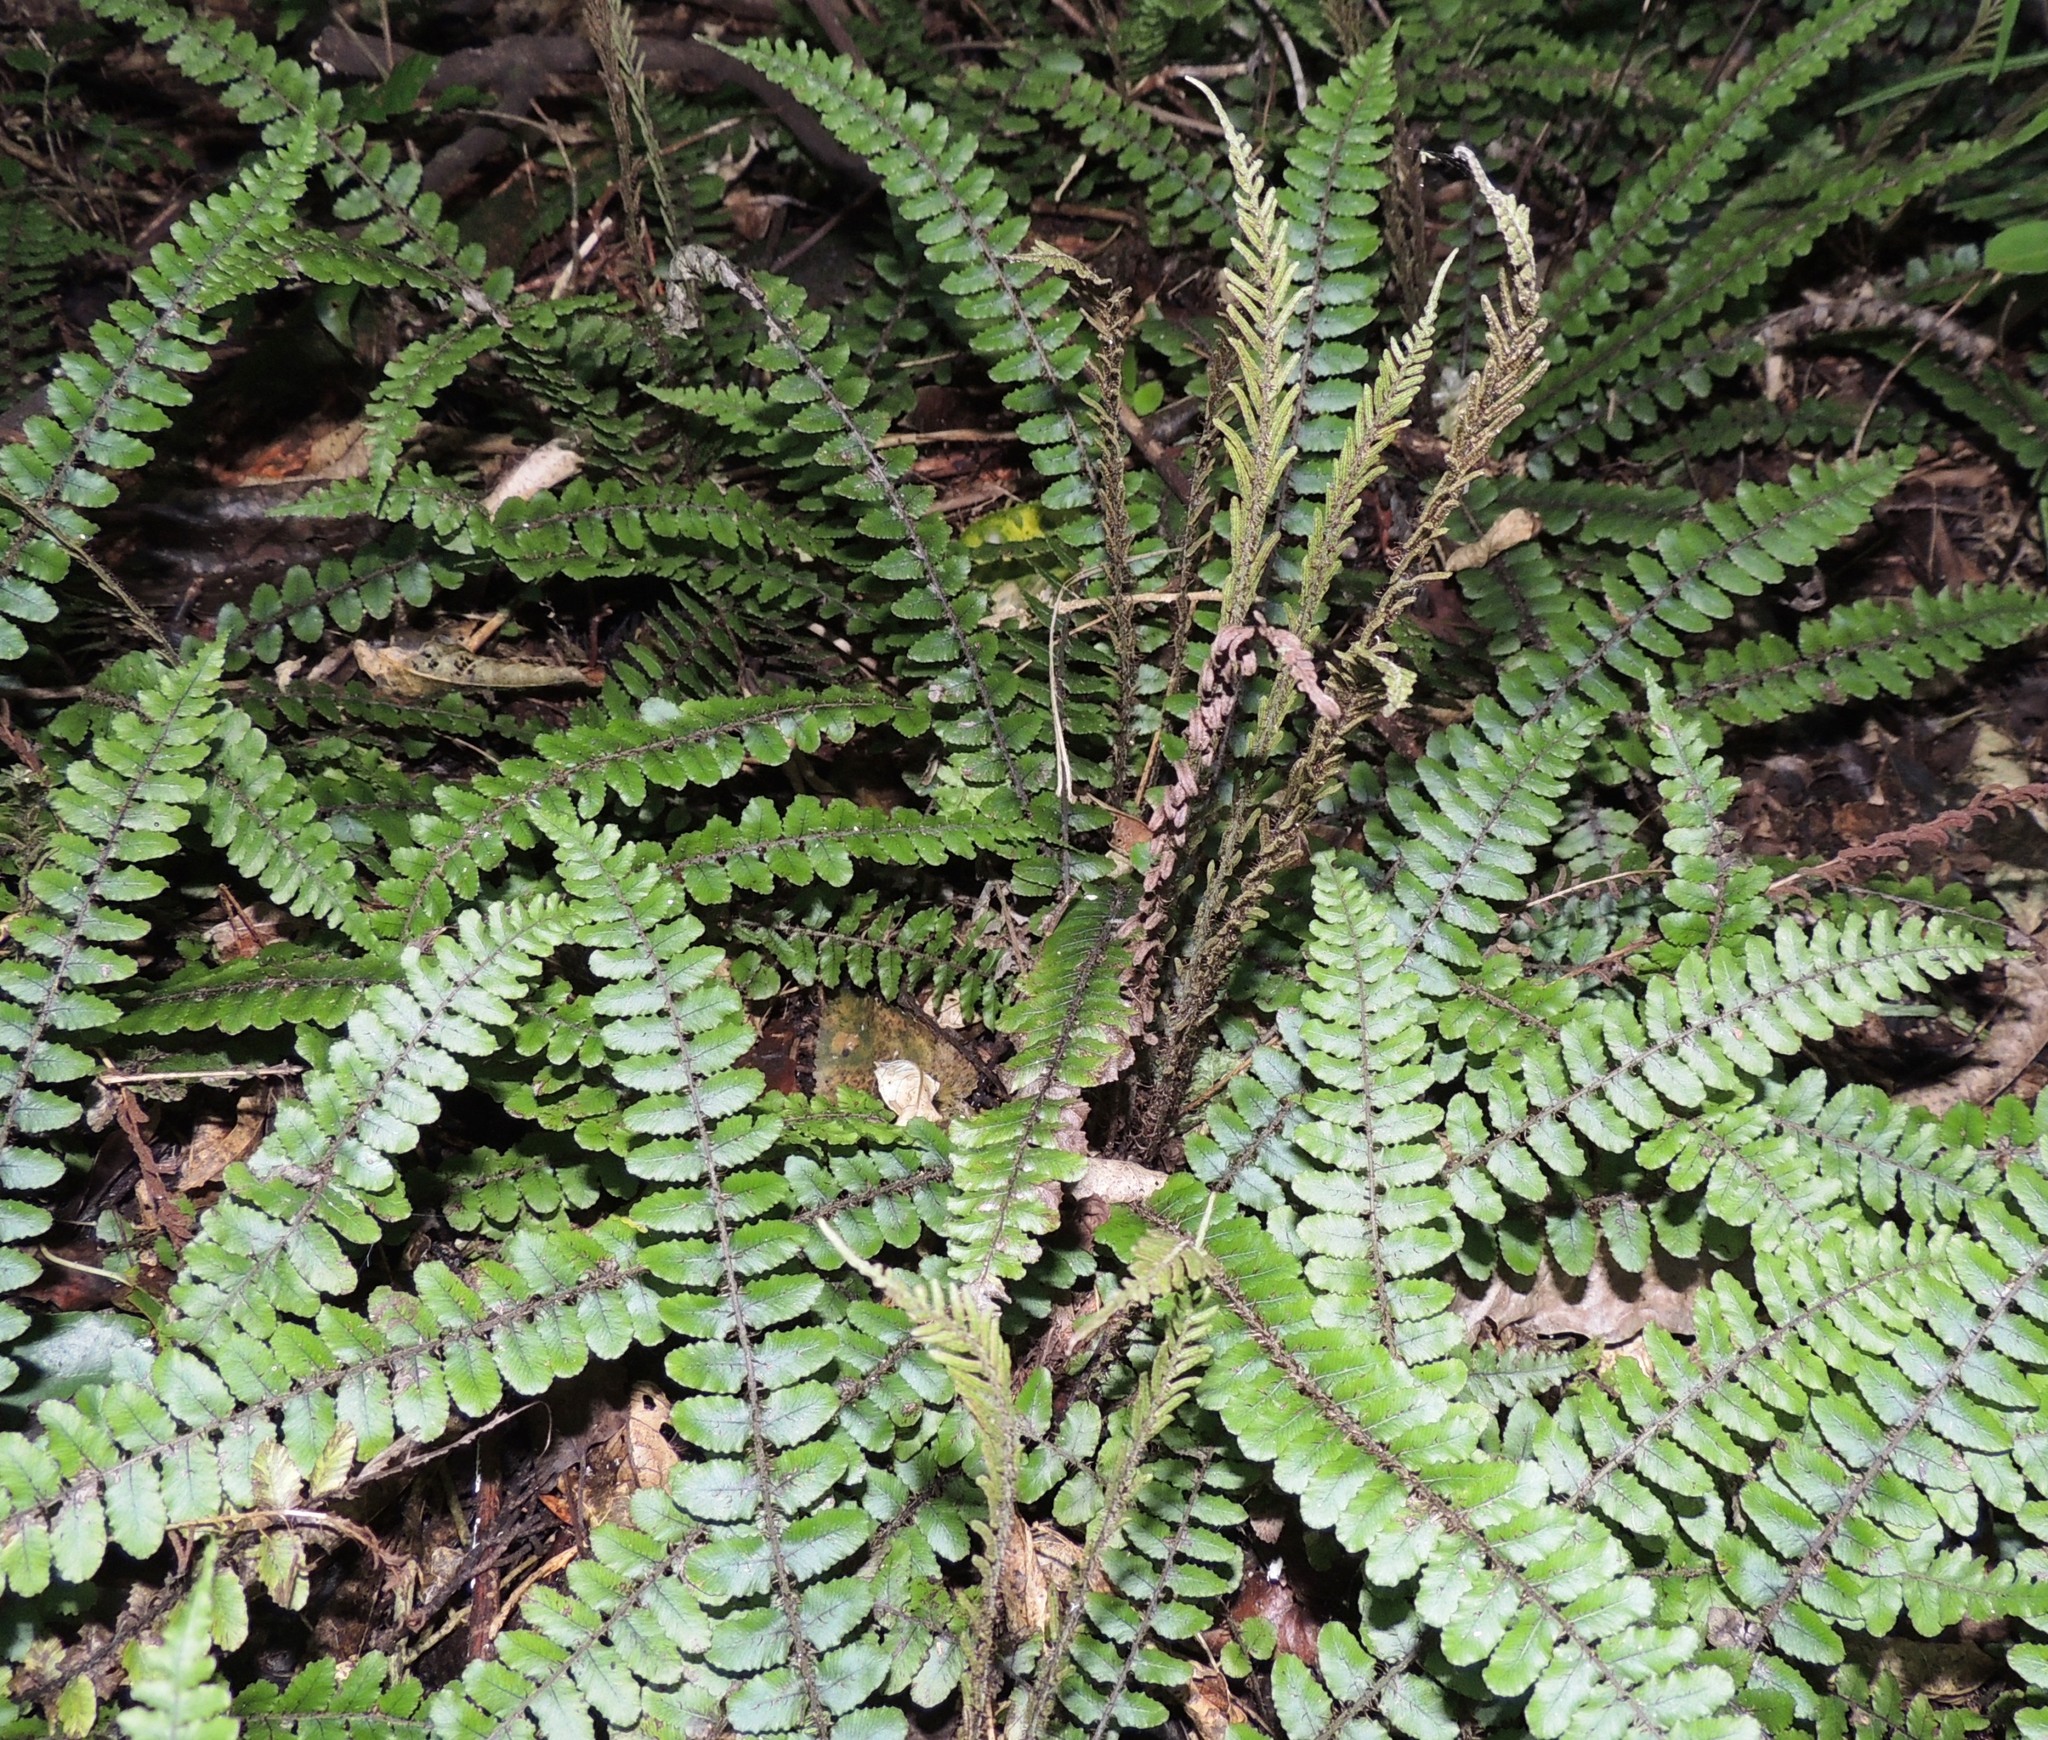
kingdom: Plantae
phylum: Tracheophyta
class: Polypodiopsida
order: Polypodiales
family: Blechnaceae
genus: Cranfillia
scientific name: Cranfillia fluviatilis
